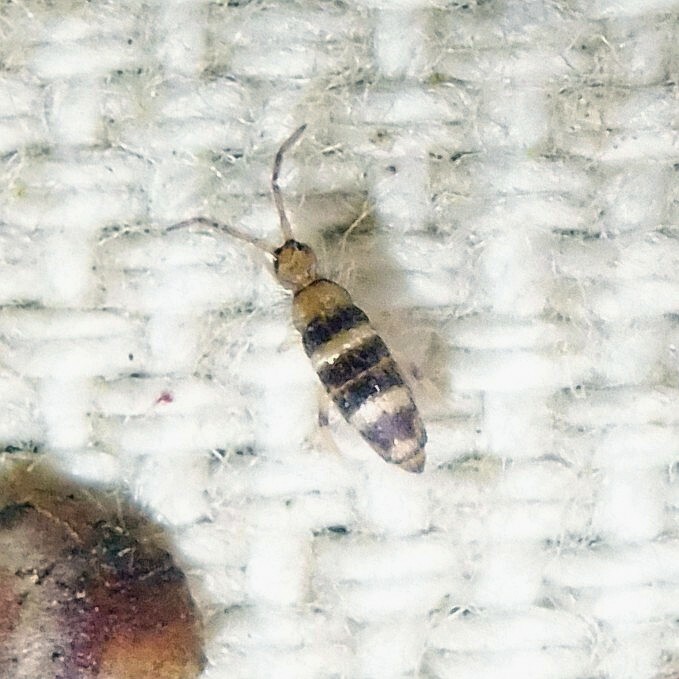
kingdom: Animalia
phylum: Arthropoda
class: Collembola
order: Entomobryomorpha
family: Entomobryidae
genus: Willowsia
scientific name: Willowsia platani
